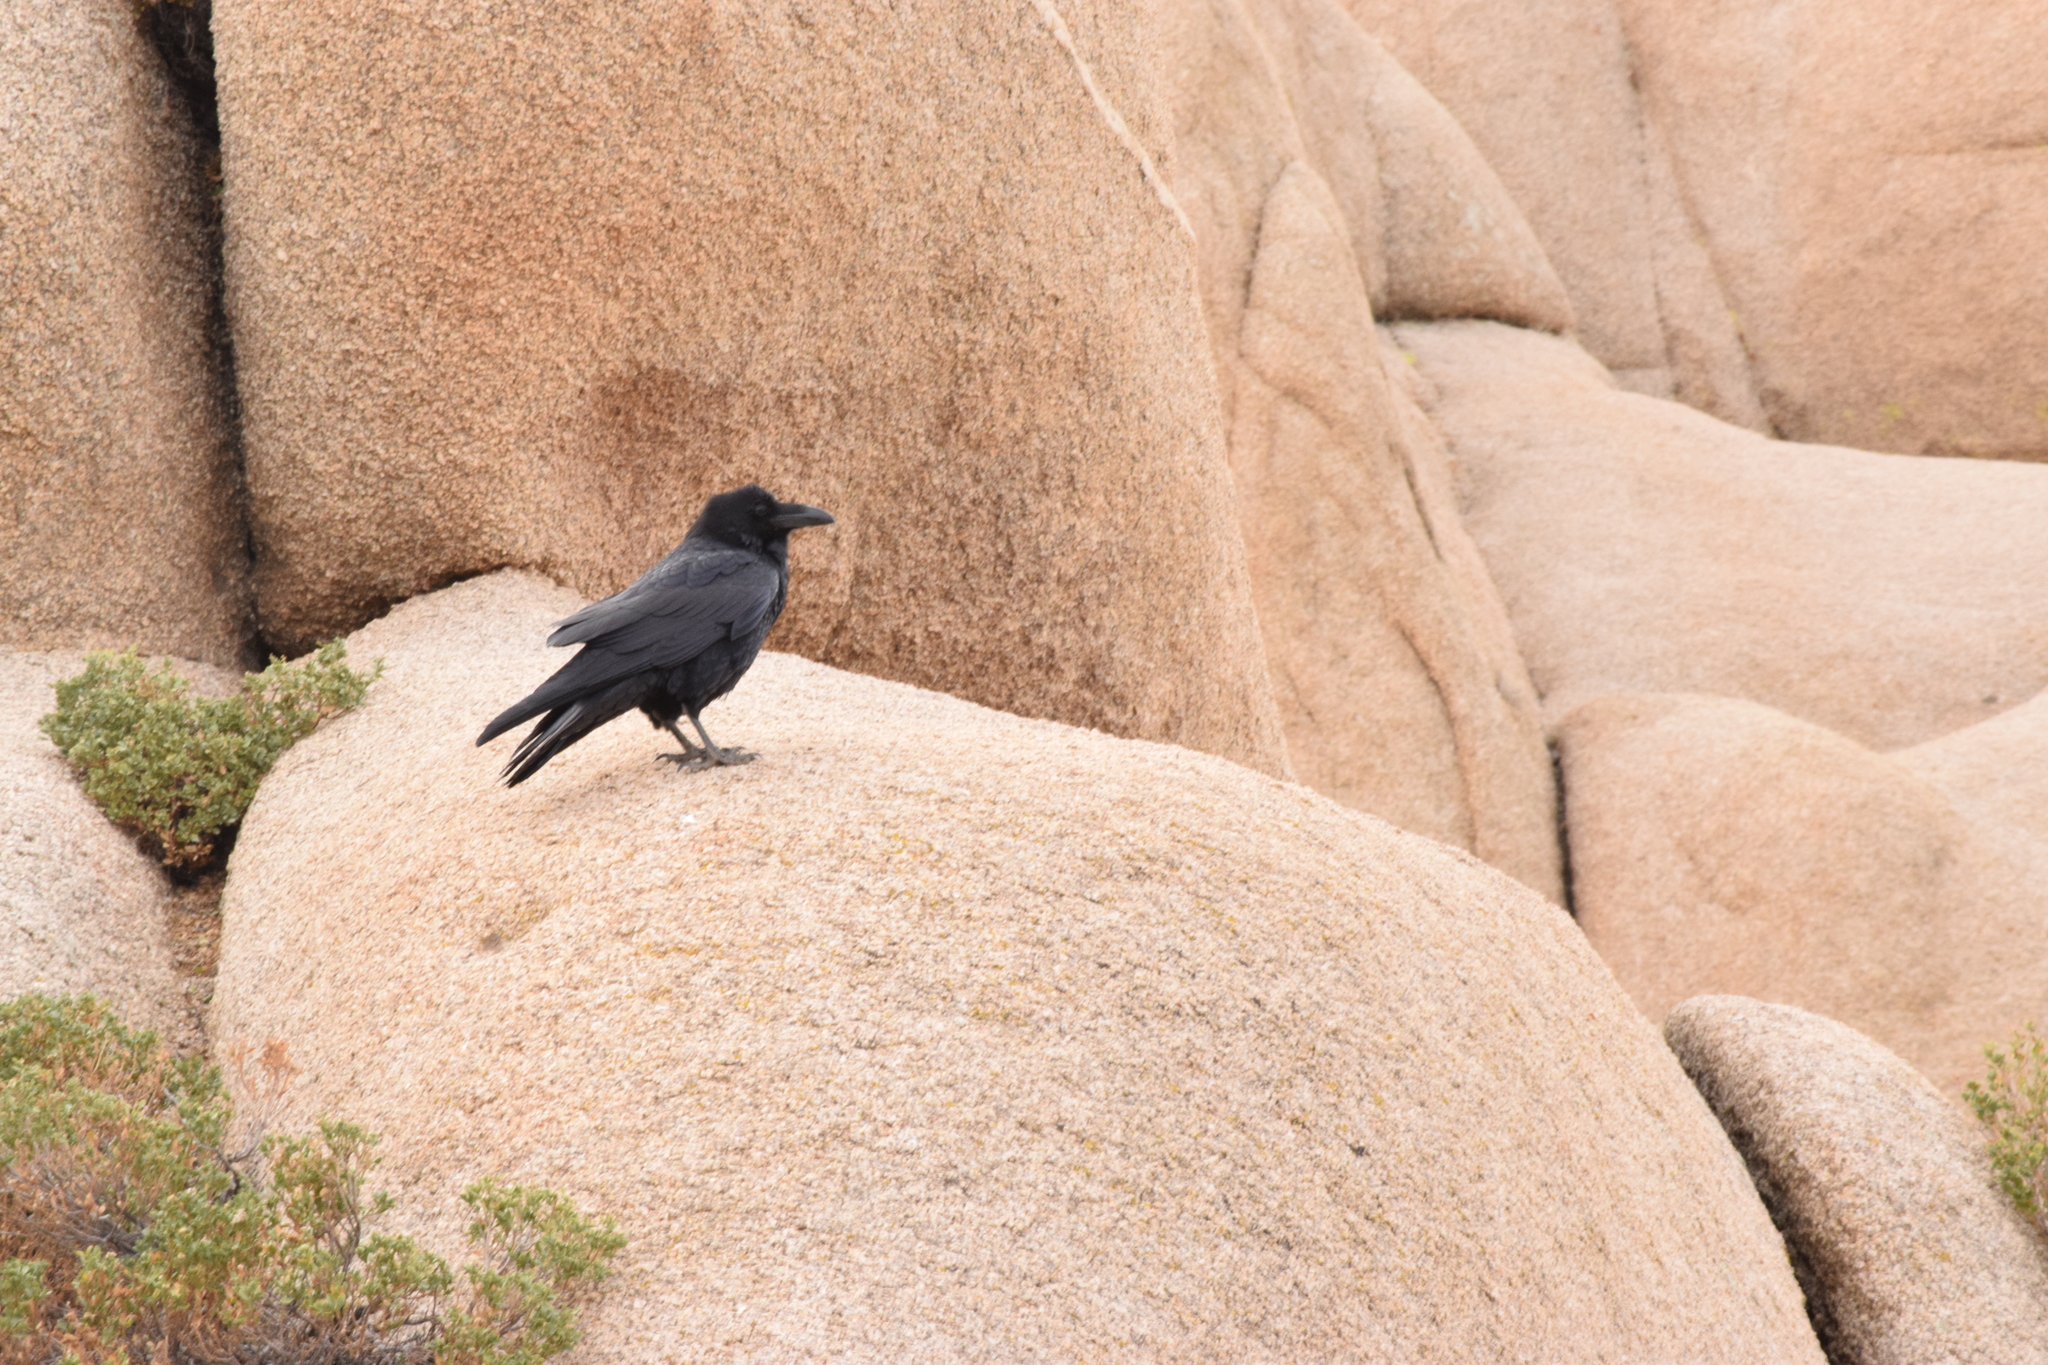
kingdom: Animalia
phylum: Chordata
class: Aves
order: Passeriformes
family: Corvidae
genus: Corvus
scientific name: Corvus corax
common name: Common raven
